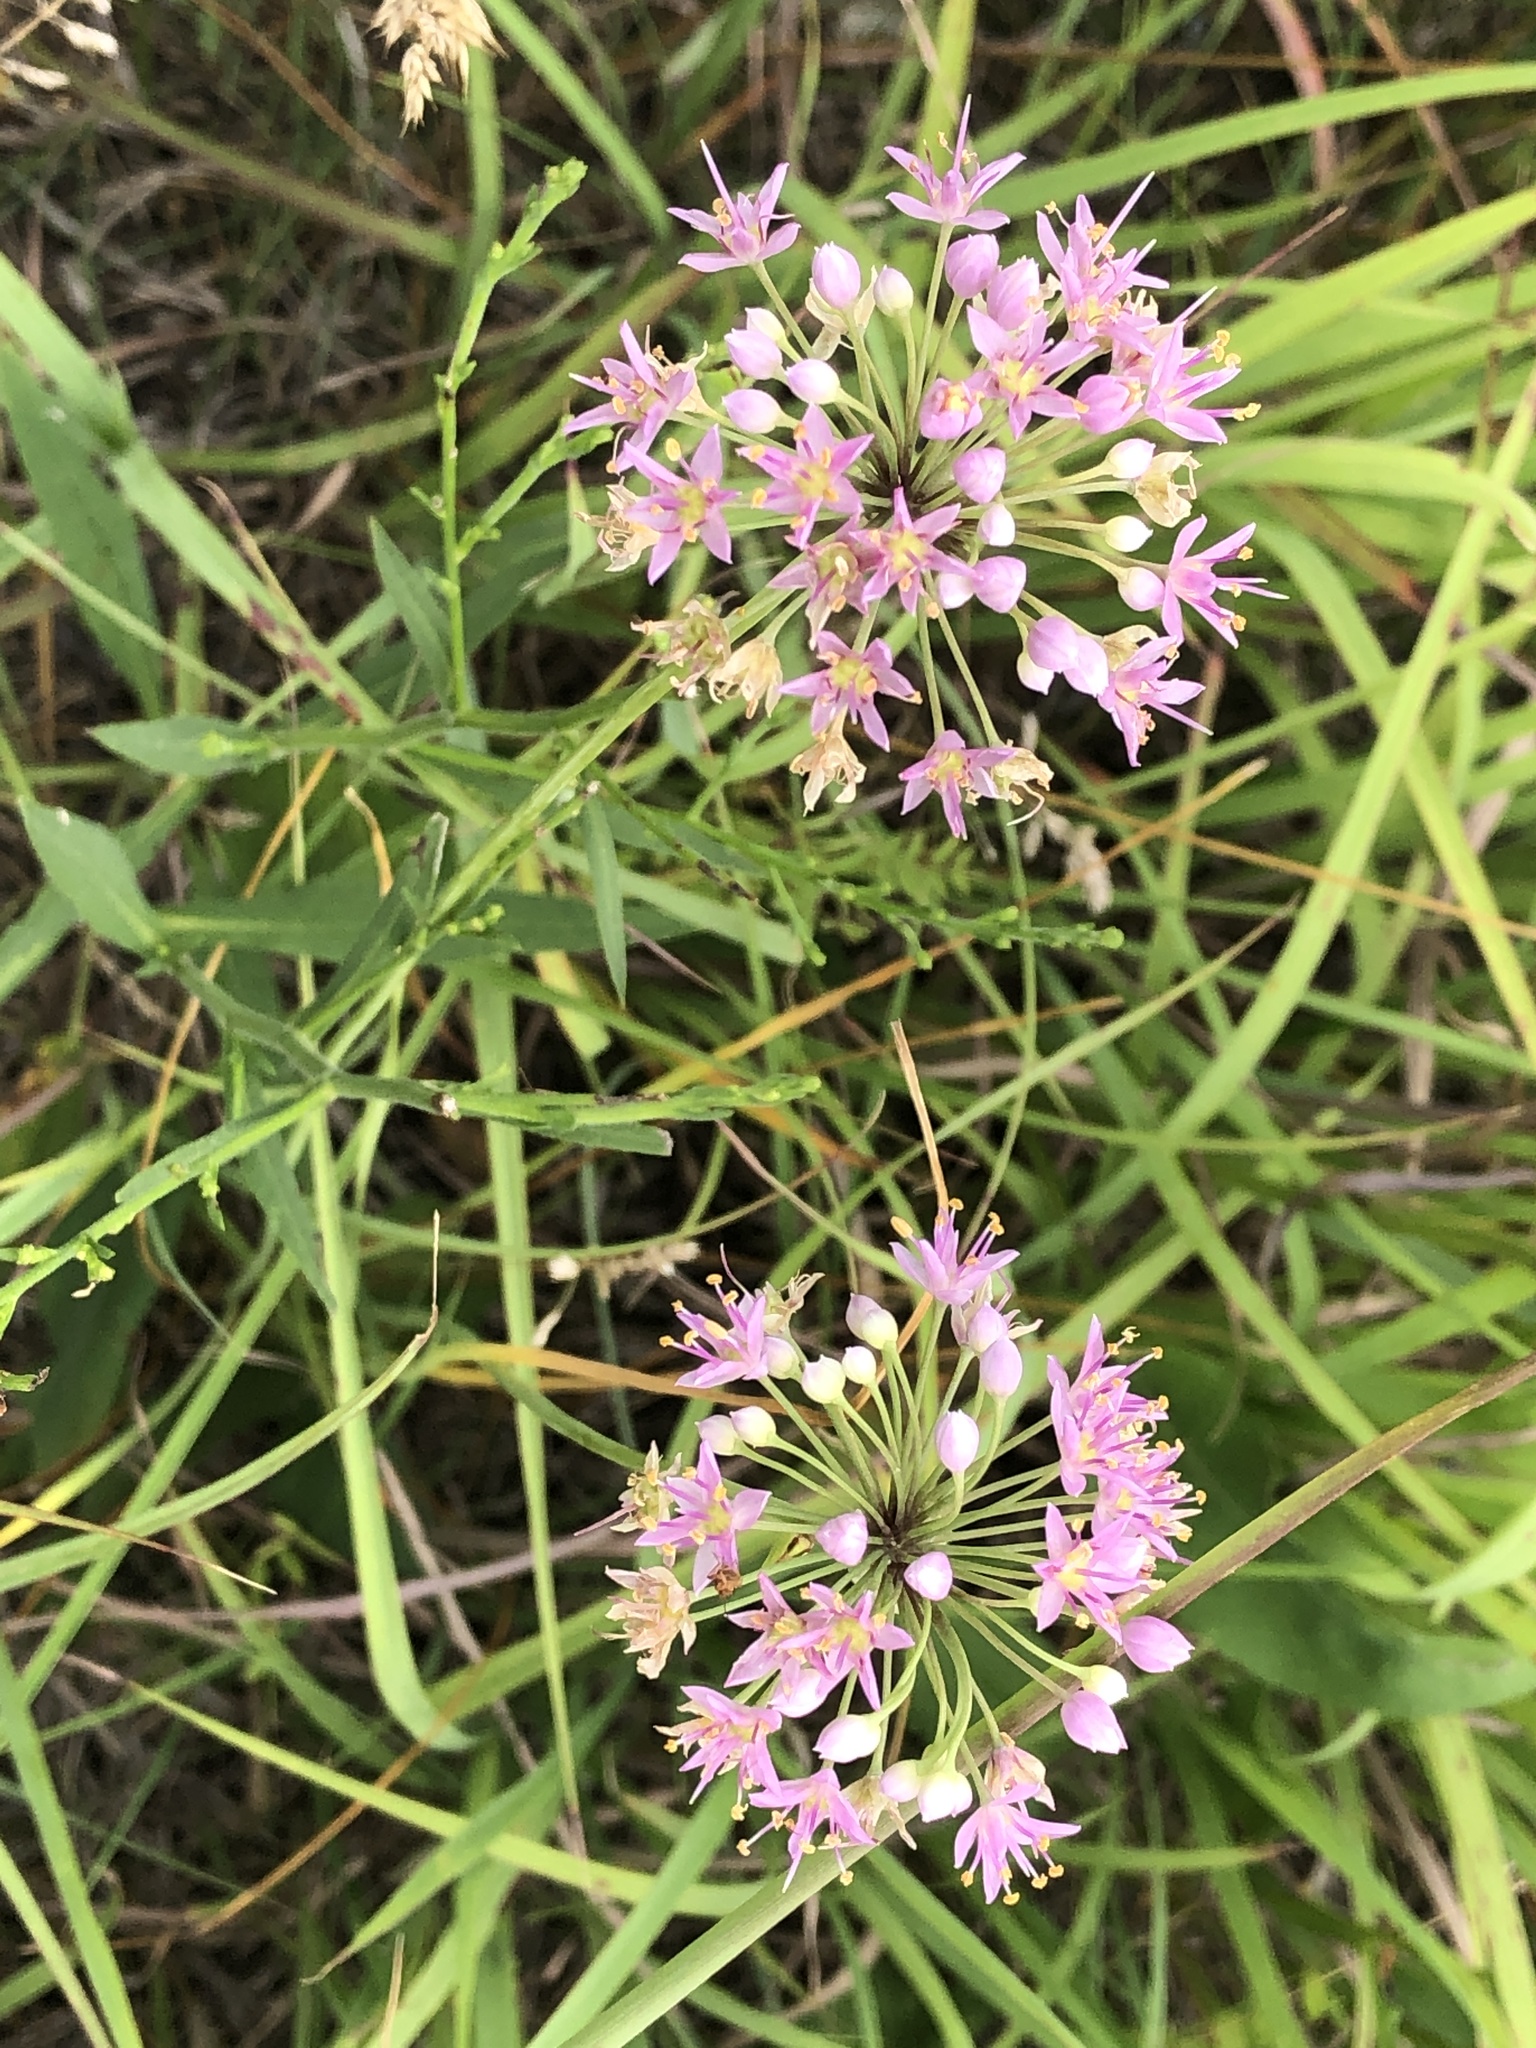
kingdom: Plantae
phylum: Tracheophyta
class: Liliopsida
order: Asparagales
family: Amaryllidaceae
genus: Allium
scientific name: Allium stellatum
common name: Autumn onion
